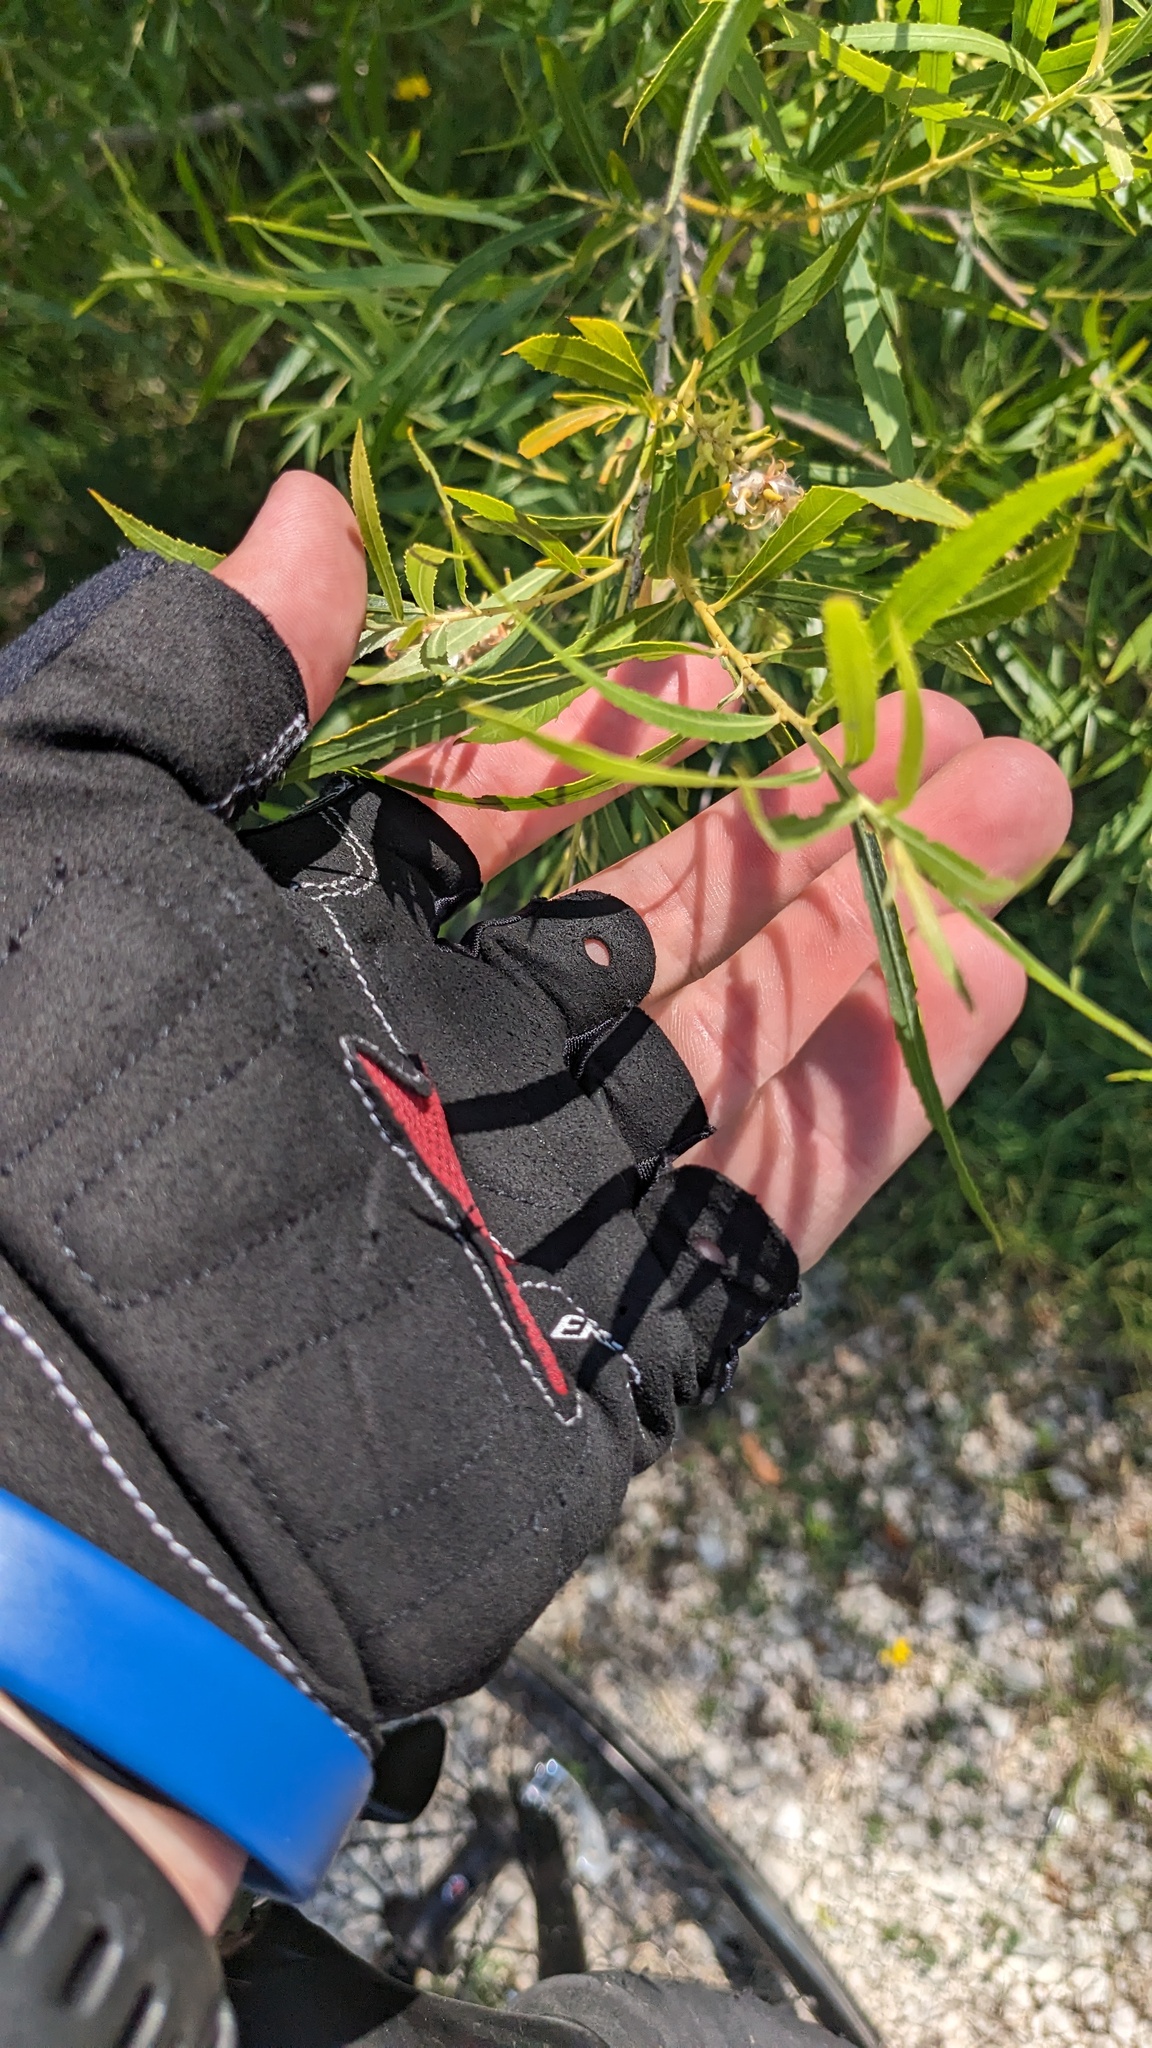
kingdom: Plantae
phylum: Tracheophyta
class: Magnoliopsida
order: Malpighiales
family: Salicaceae
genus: Salix
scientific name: Salix interior
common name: Sandbar willow
